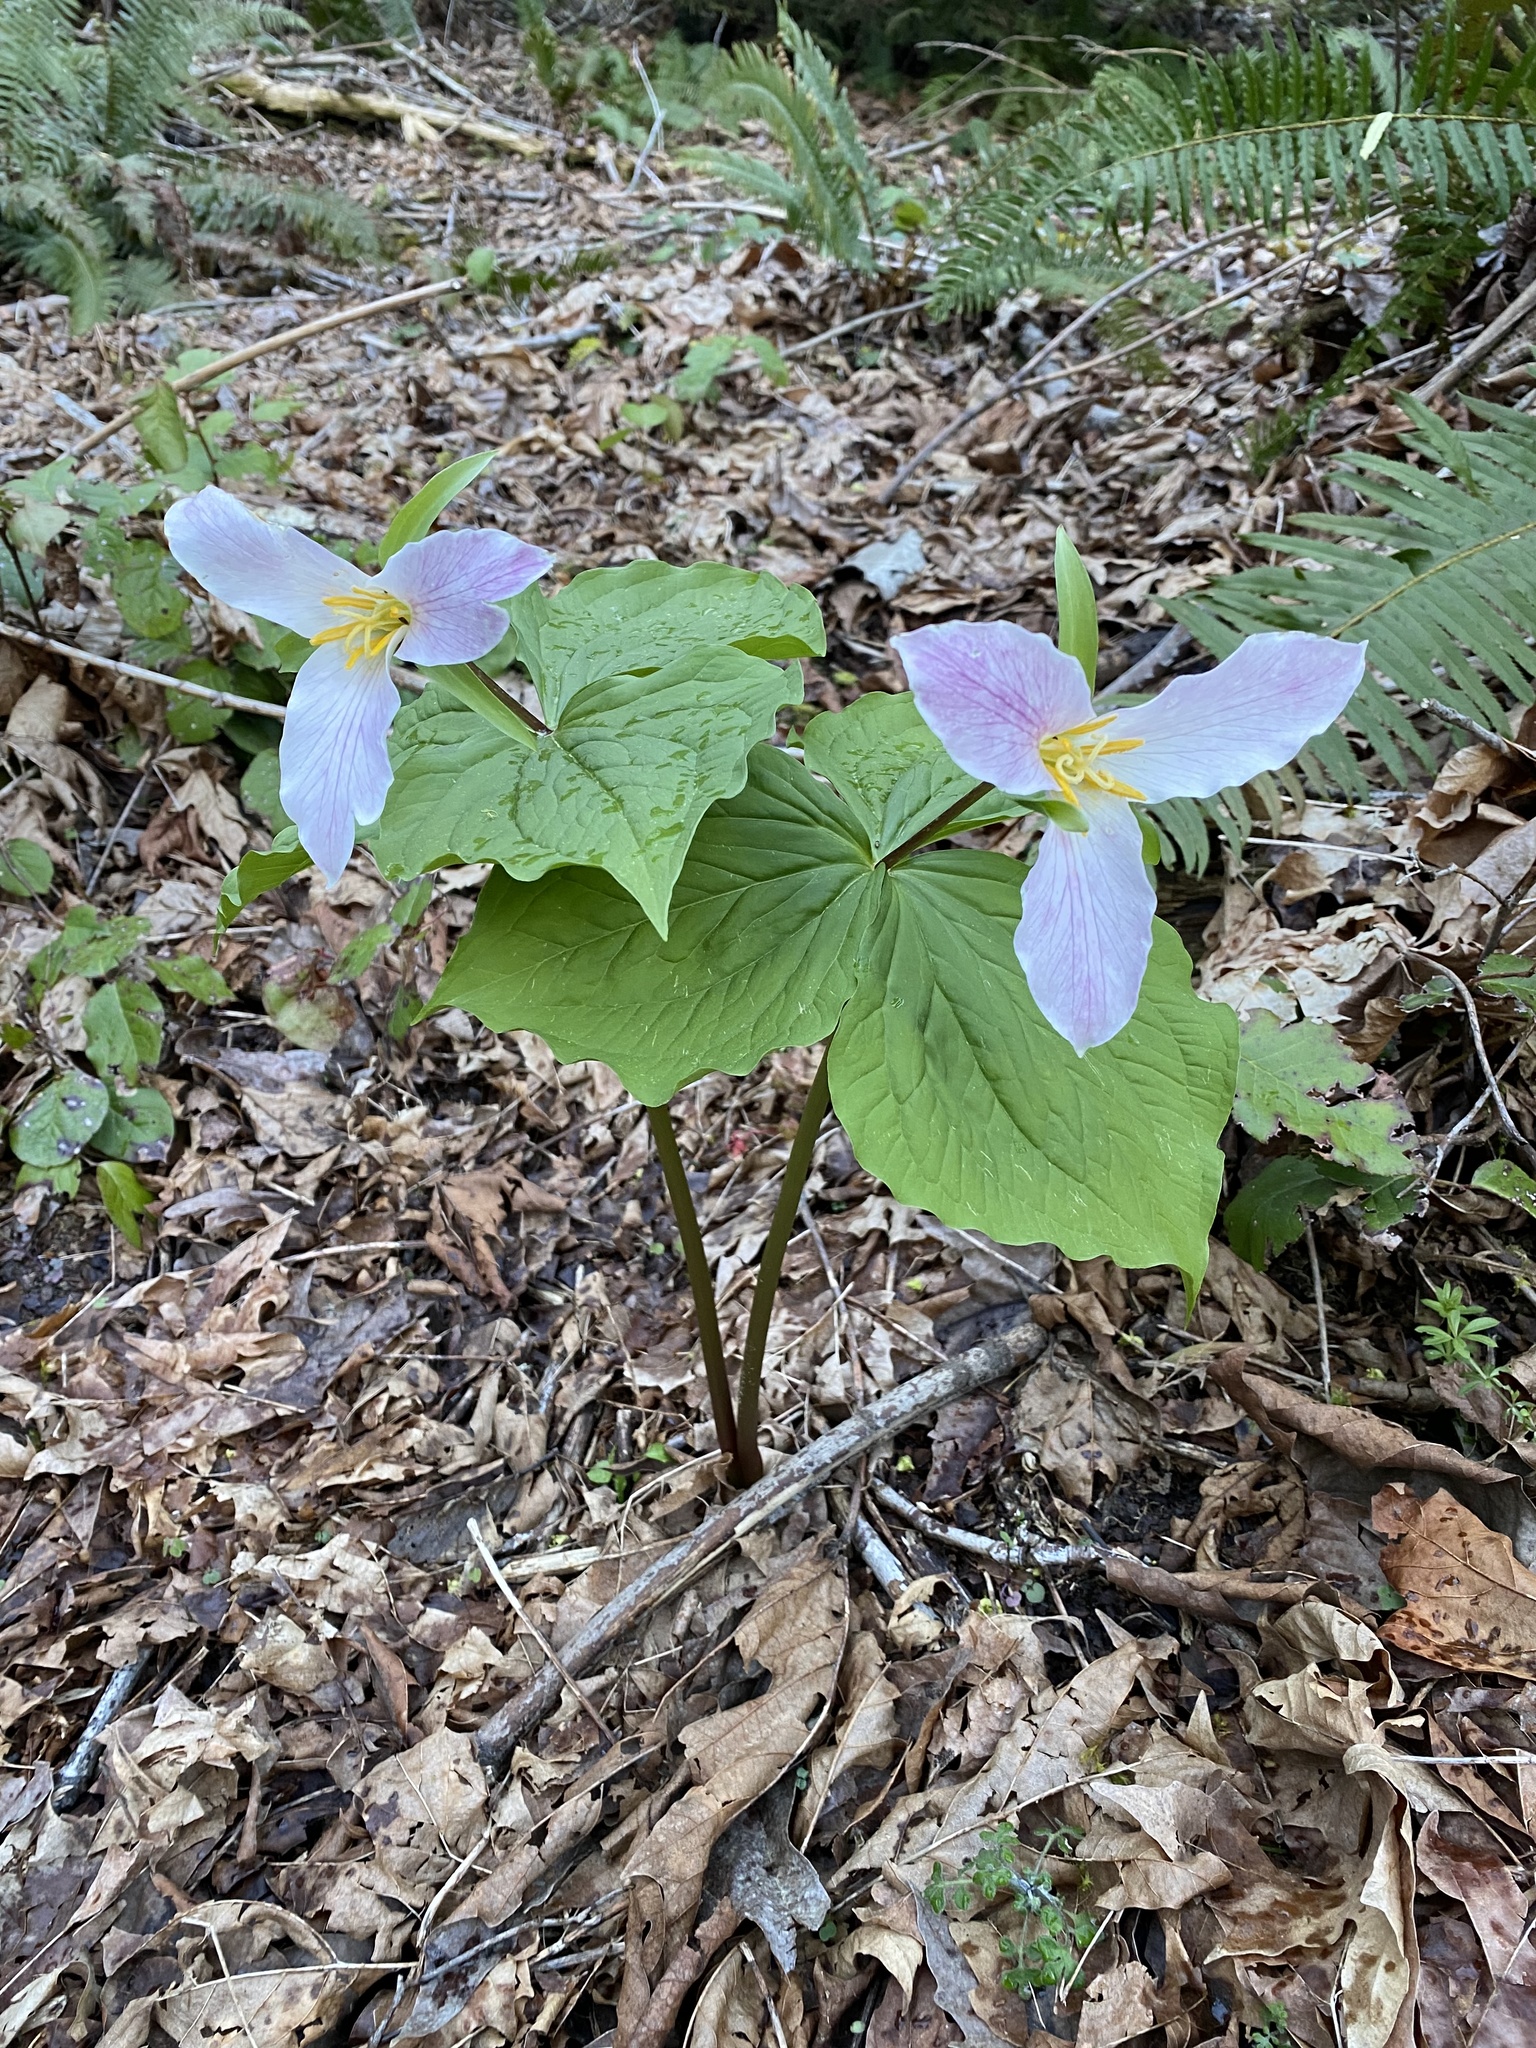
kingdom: Plantae
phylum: Tracheophyta
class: Liliopsida
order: Liliales
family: Melanthiaceae
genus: Trillium
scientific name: Trillium ovatum
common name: Pacific trillium
